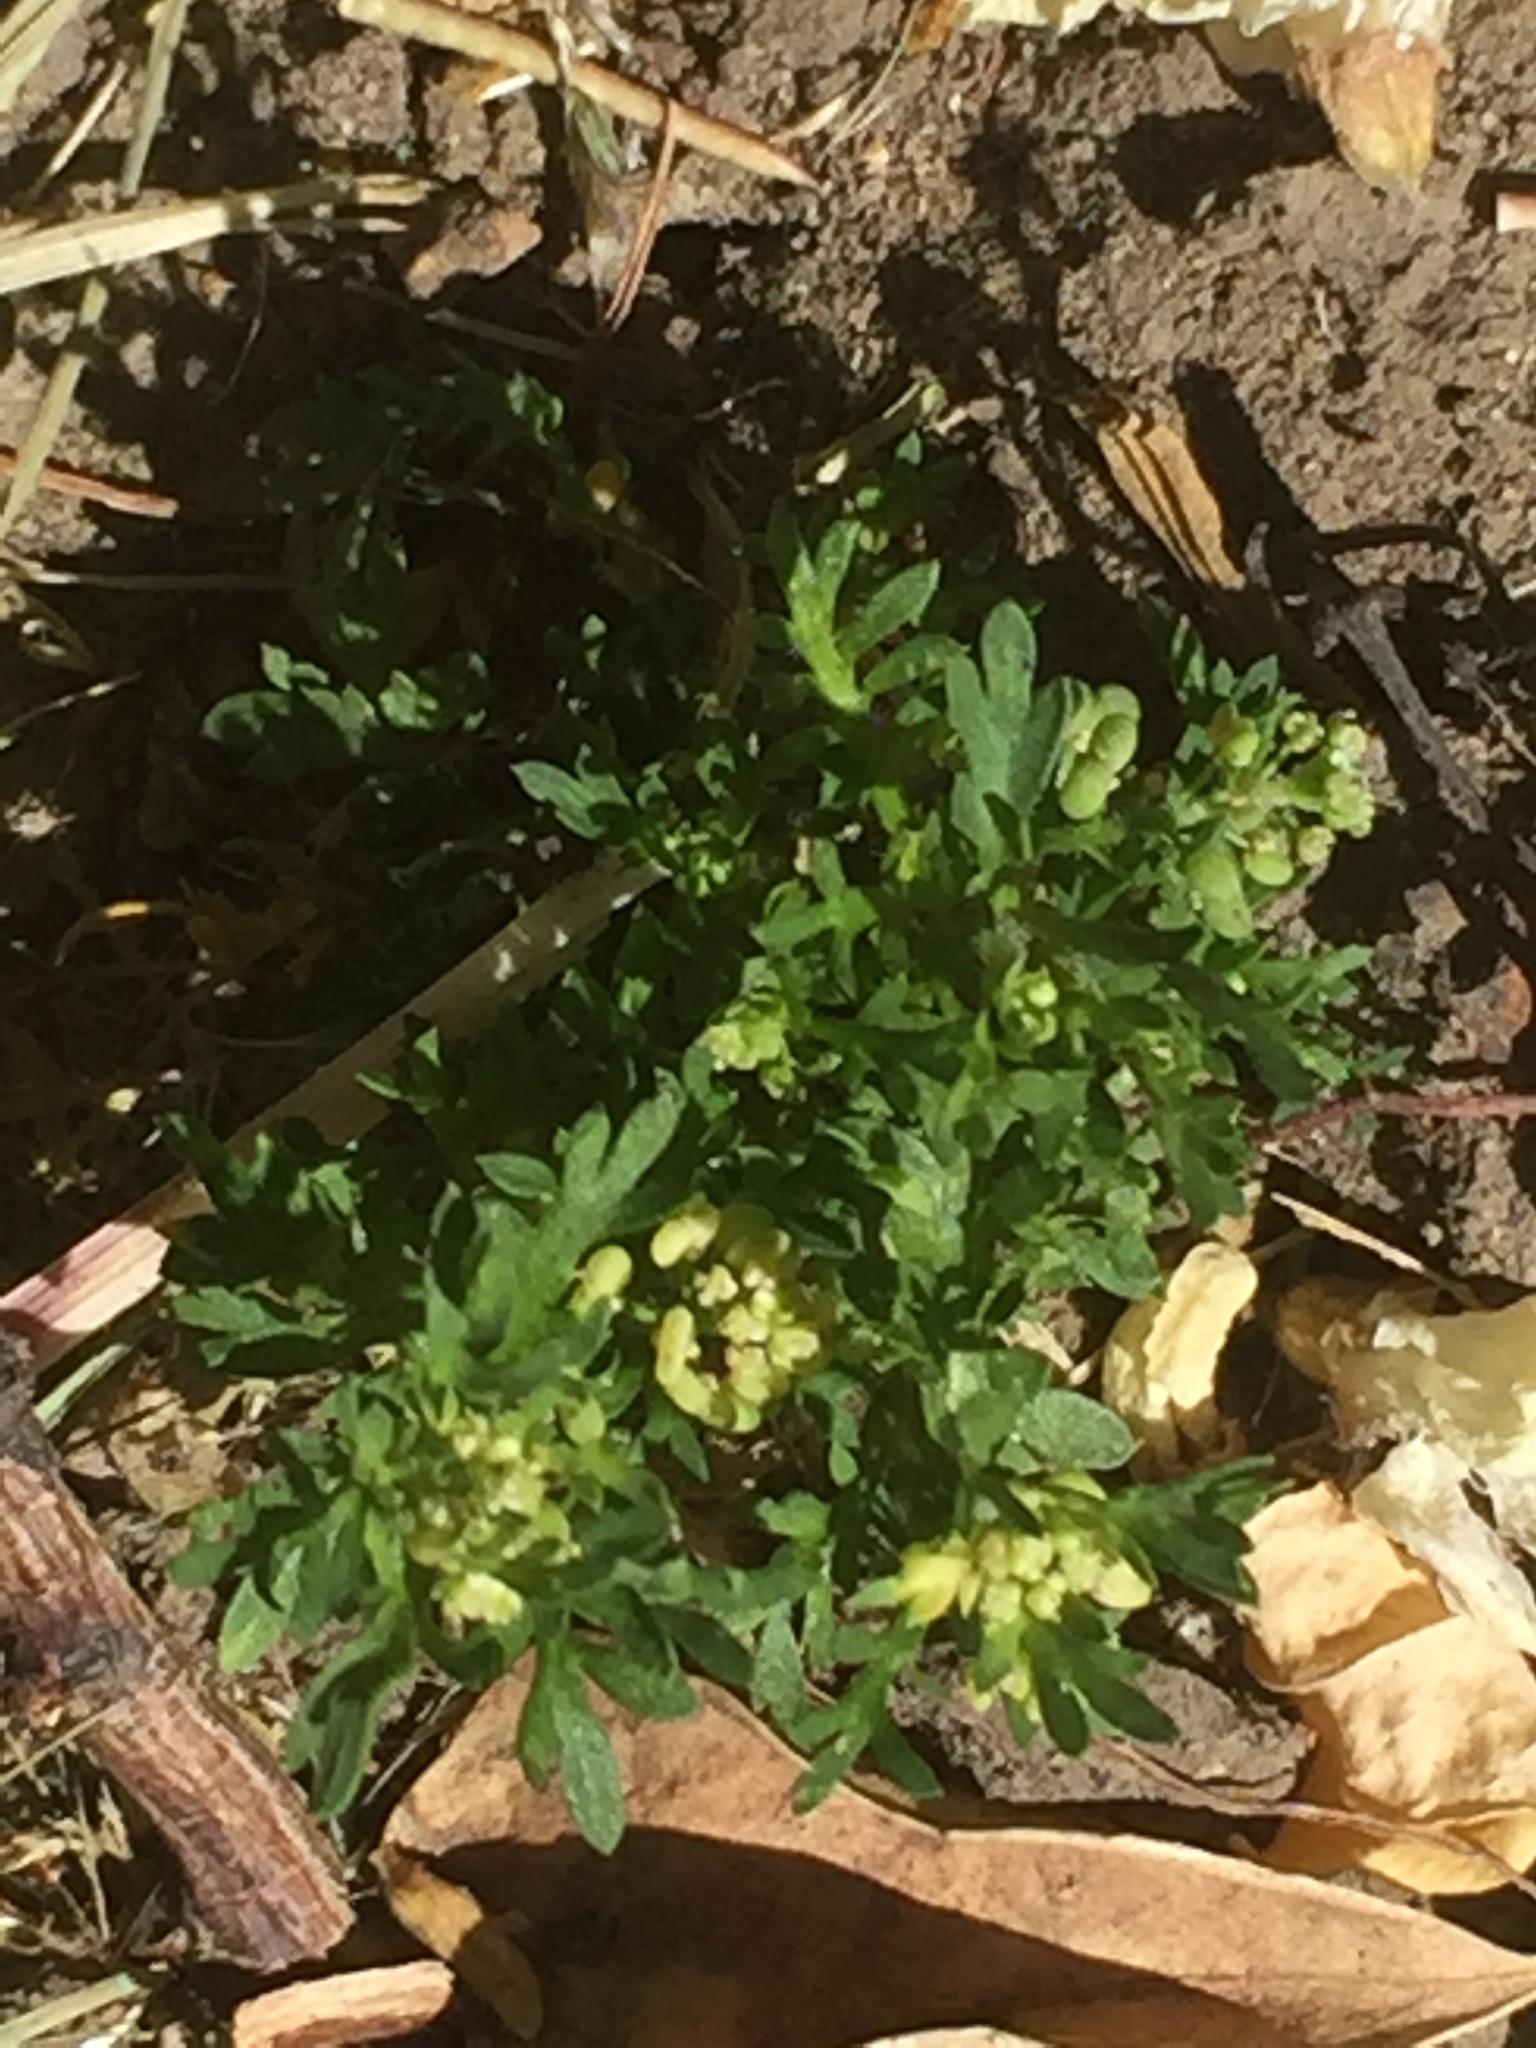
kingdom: Plantae
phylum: Tracheophyta
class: Magnoliopsida
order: Brassicales
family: Brassicaceae
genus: Lepidium
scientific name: Lepidium didymum
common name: Lesser swinecress
